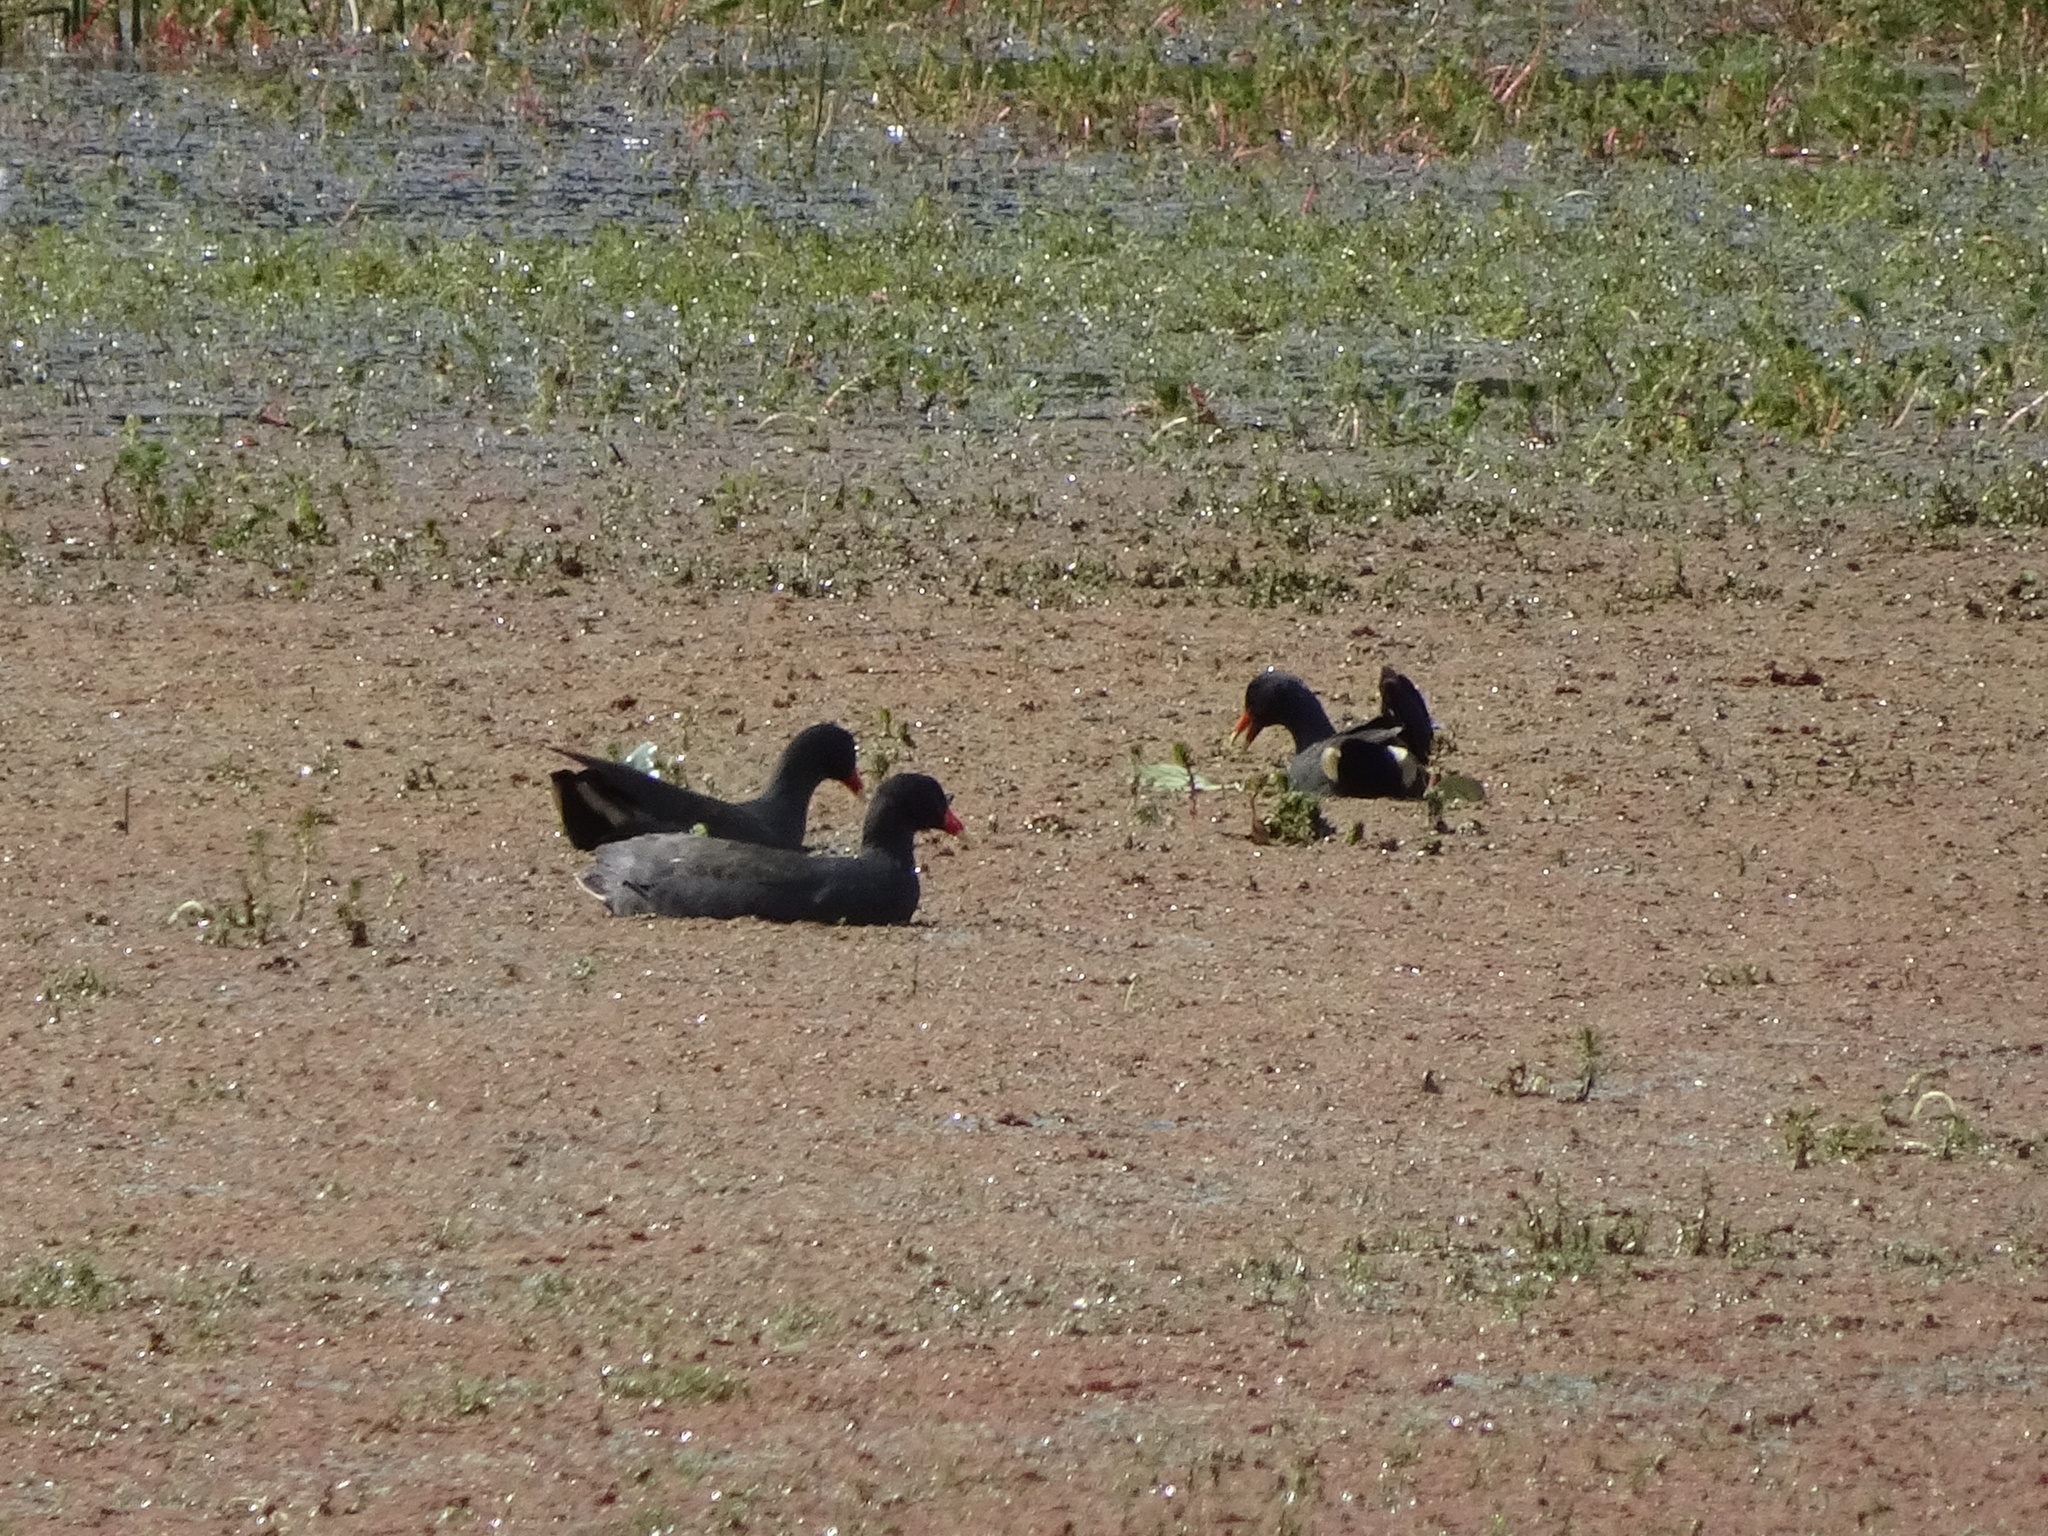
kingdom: Animalia
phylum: Chordata
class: Aves
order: Gruiformes
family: Rallidae
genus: Gallinula
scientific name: Gallinula tenebrosa
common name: Dusky moorhen
